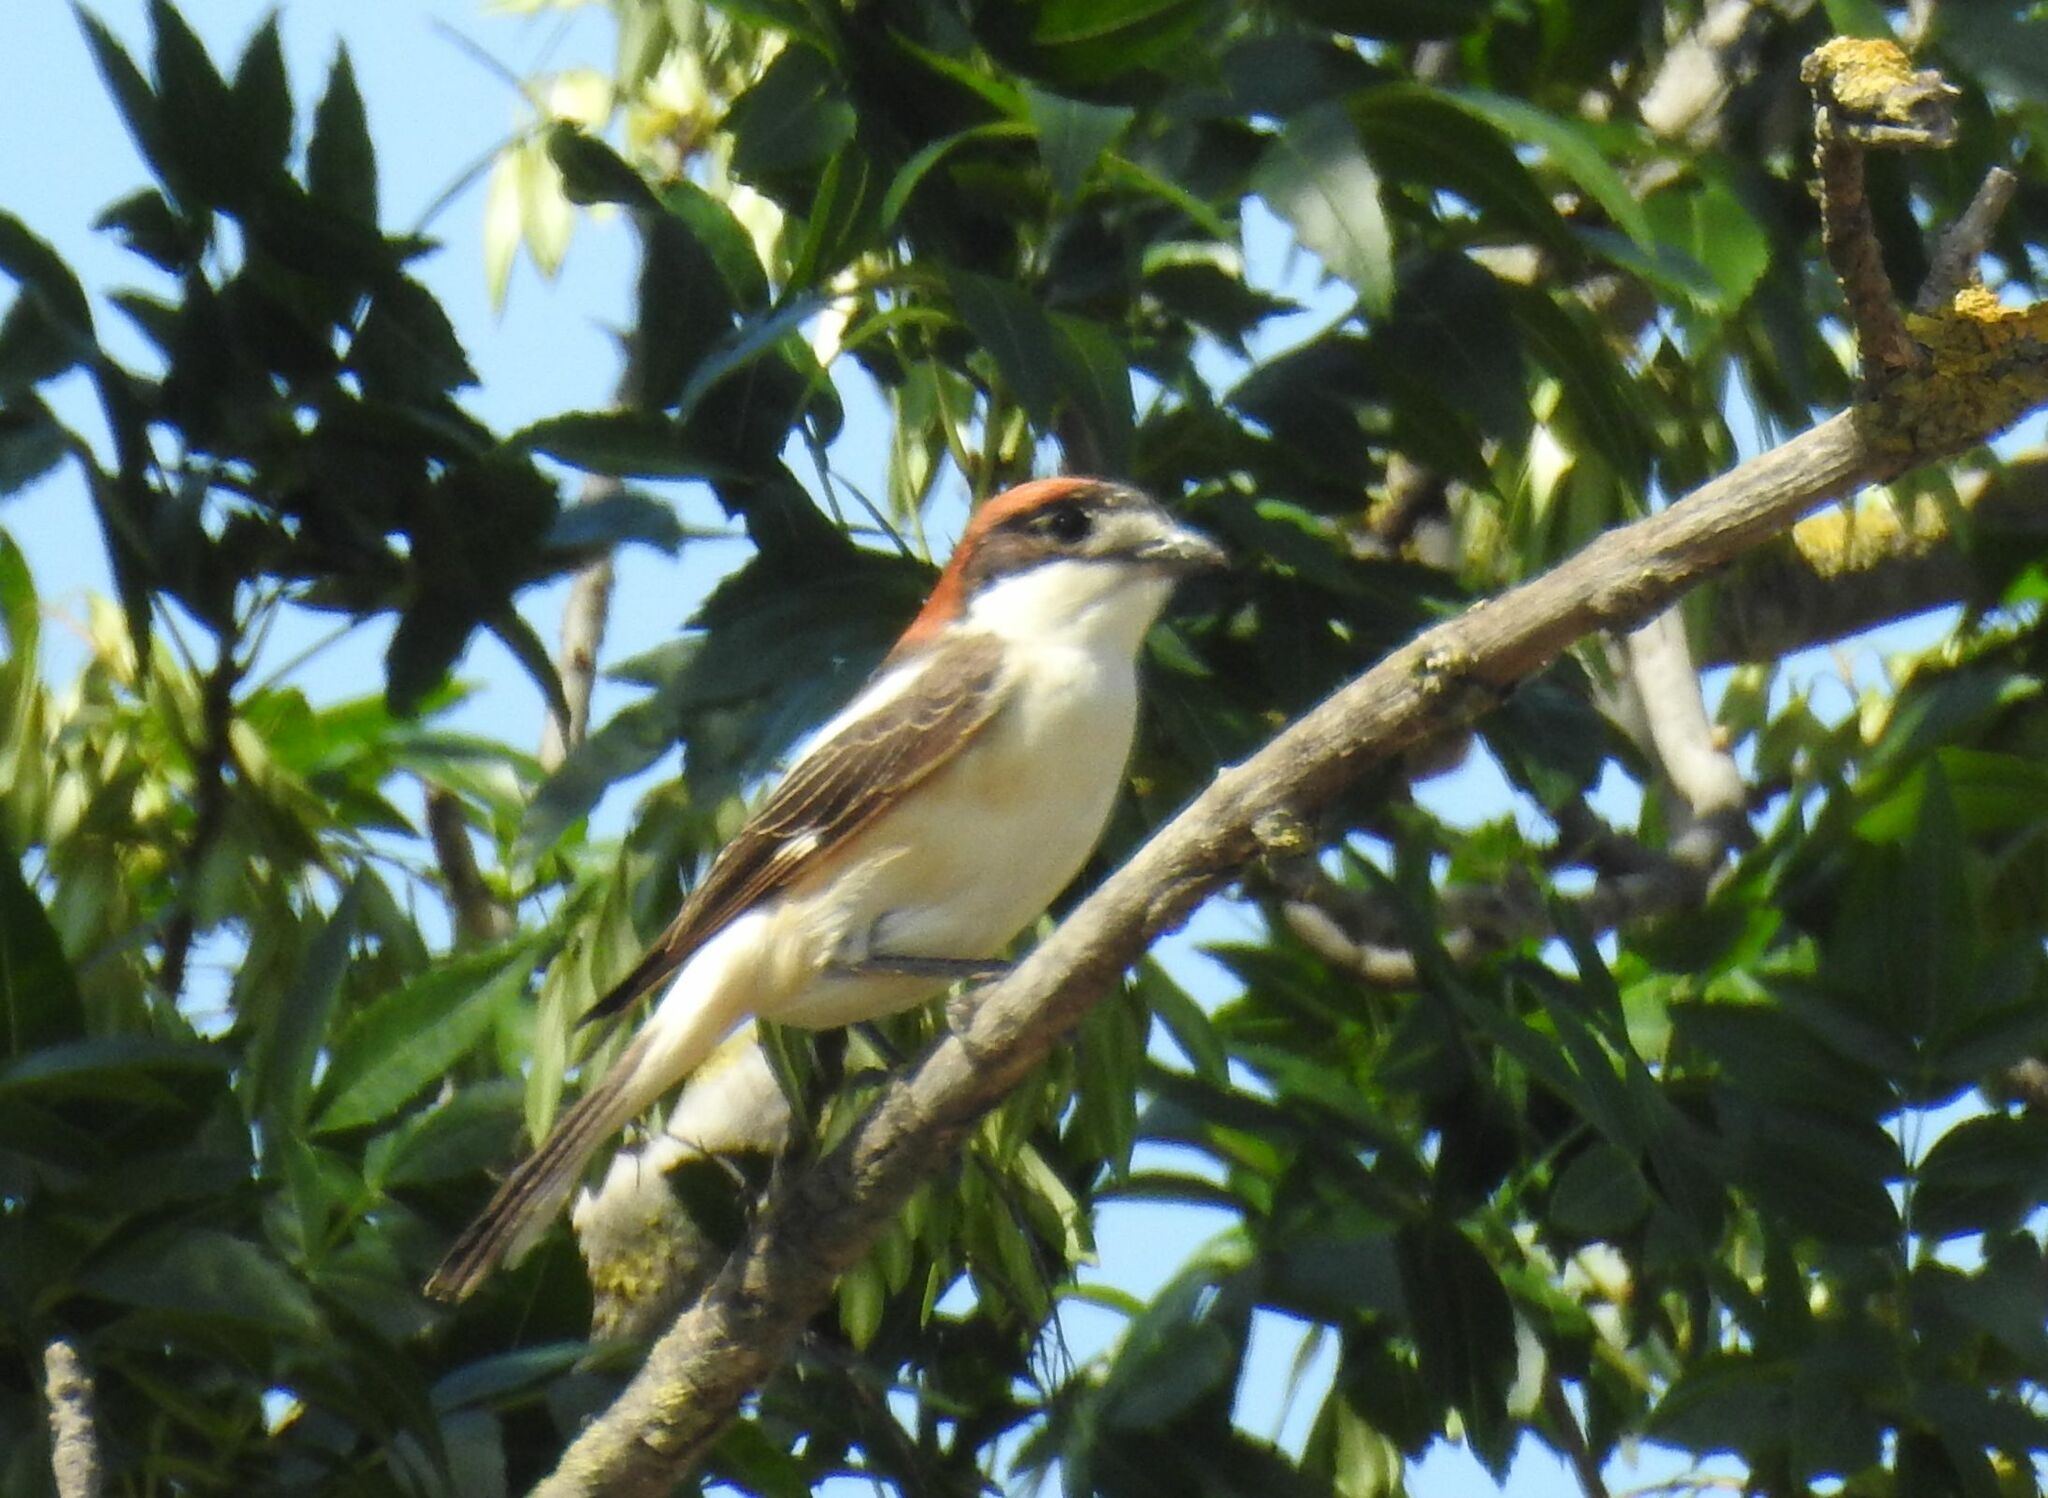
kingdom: Animalia
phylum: Chordata
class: Aves
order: Passeriformes
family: Laniidae
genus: Lanius
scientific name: Lanius senator
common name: Woodchat shrike
